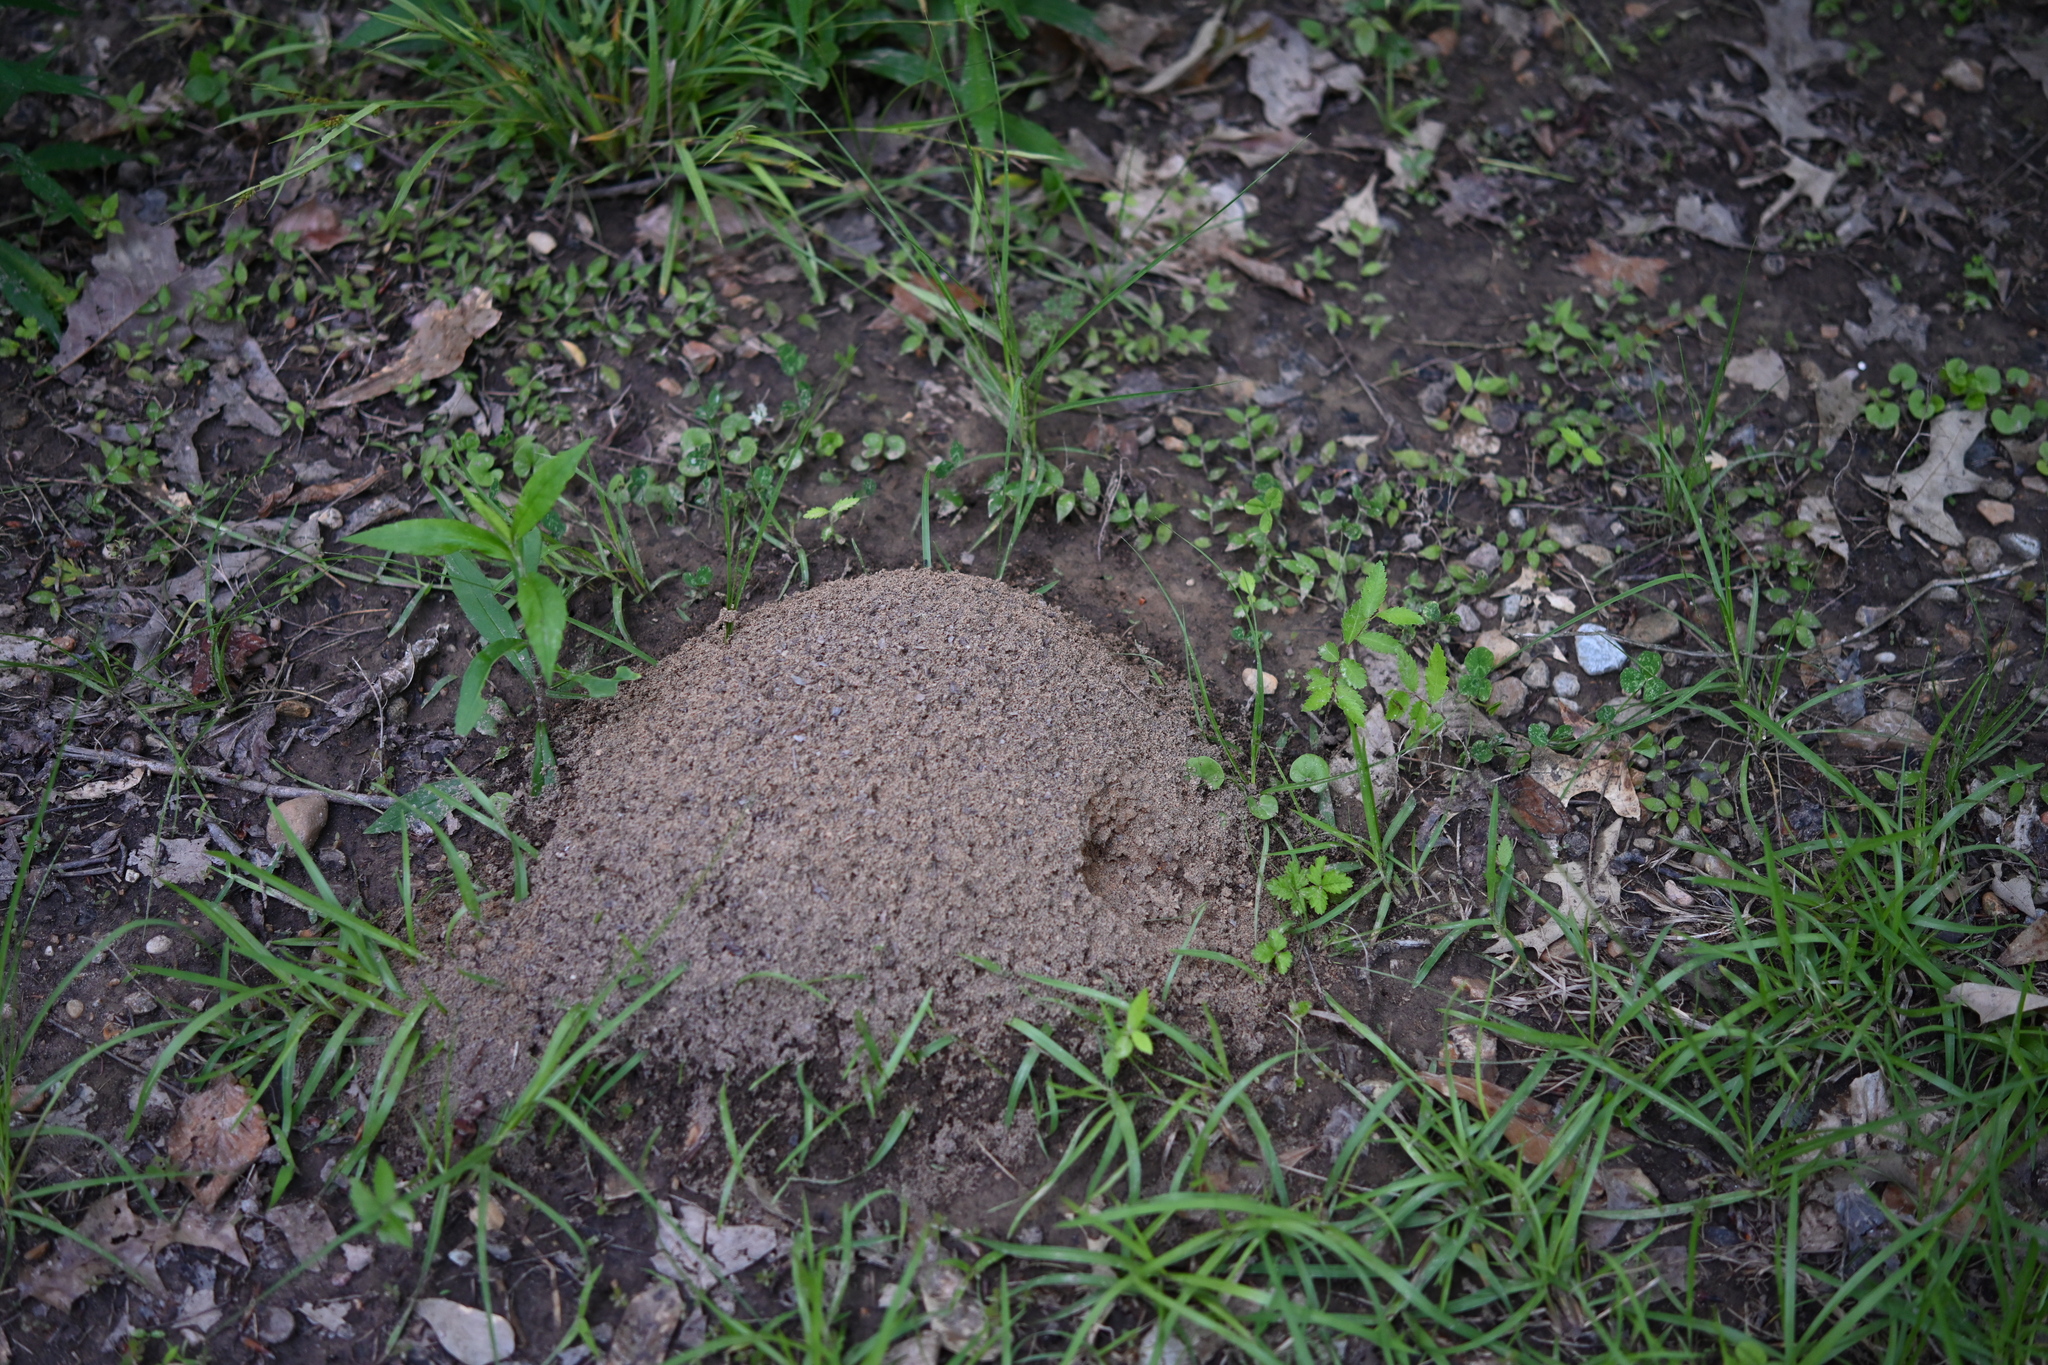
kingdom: Animalia
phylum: Arthropoda
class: Insecta
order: Hymenoptera
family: Formicidae
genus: Solenopsis
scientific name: Solenopsis invicta
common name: Red imported fire ant
